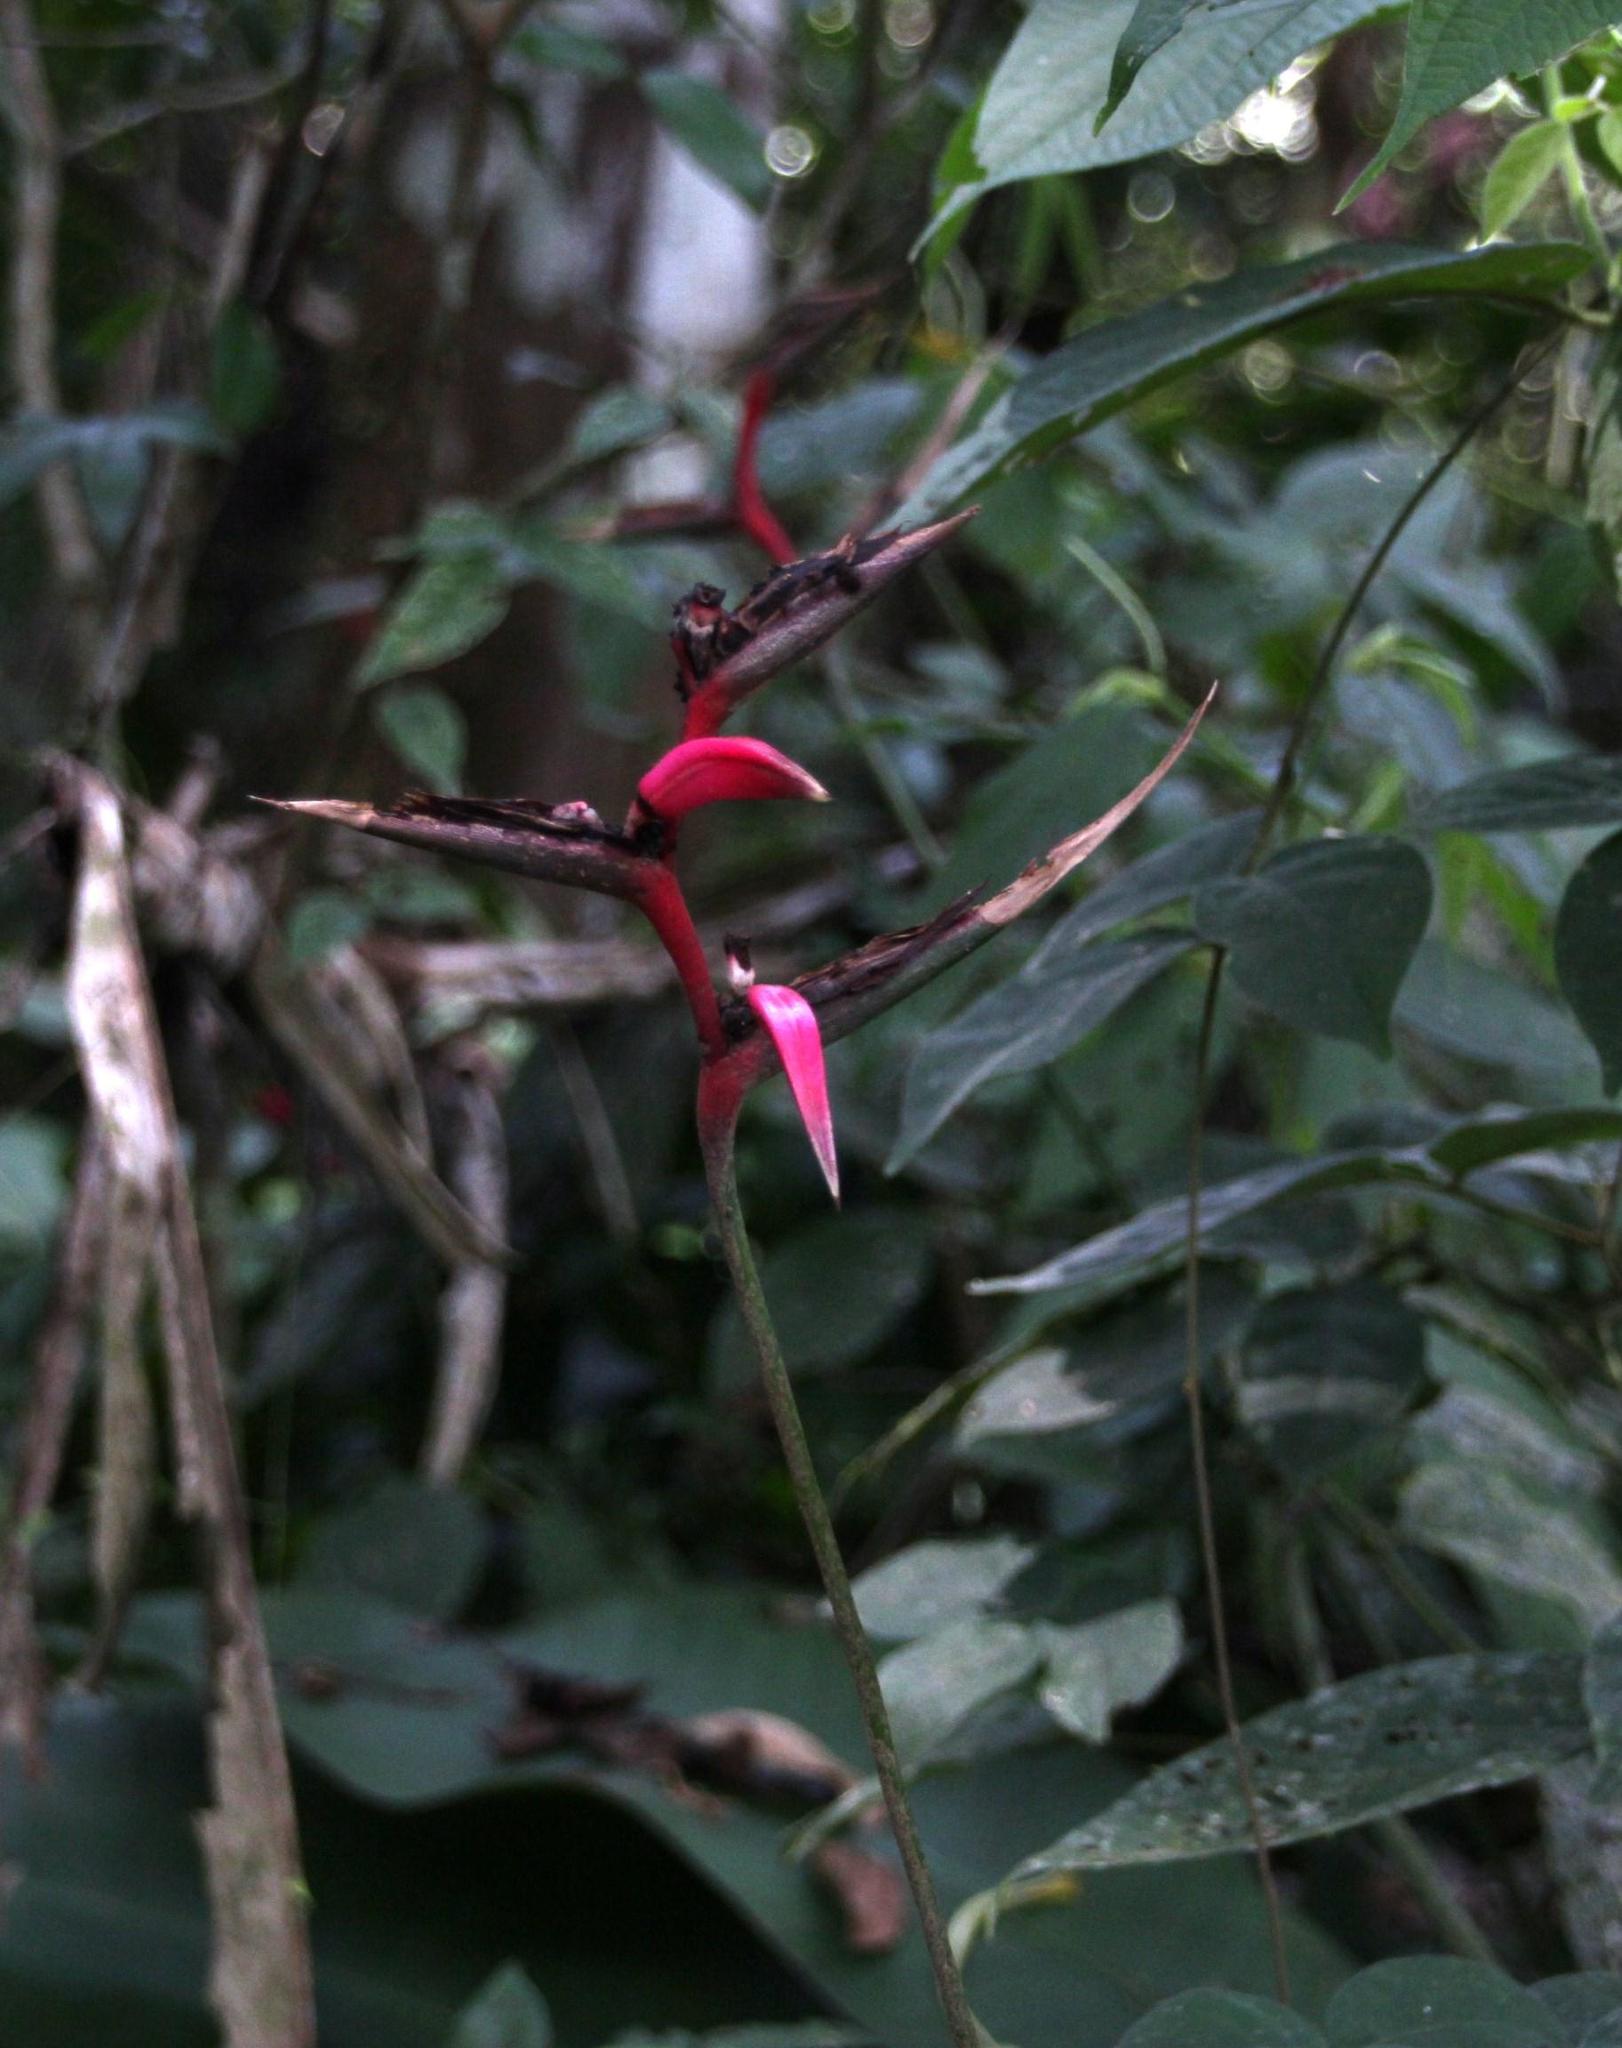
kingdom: Plantae
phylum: Tracheophyta
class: Liliopsida
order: Zingiberales
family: Heliconiaceae
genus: Heliconia
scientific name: Heliconia metallica
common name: Shining bird of paradise
